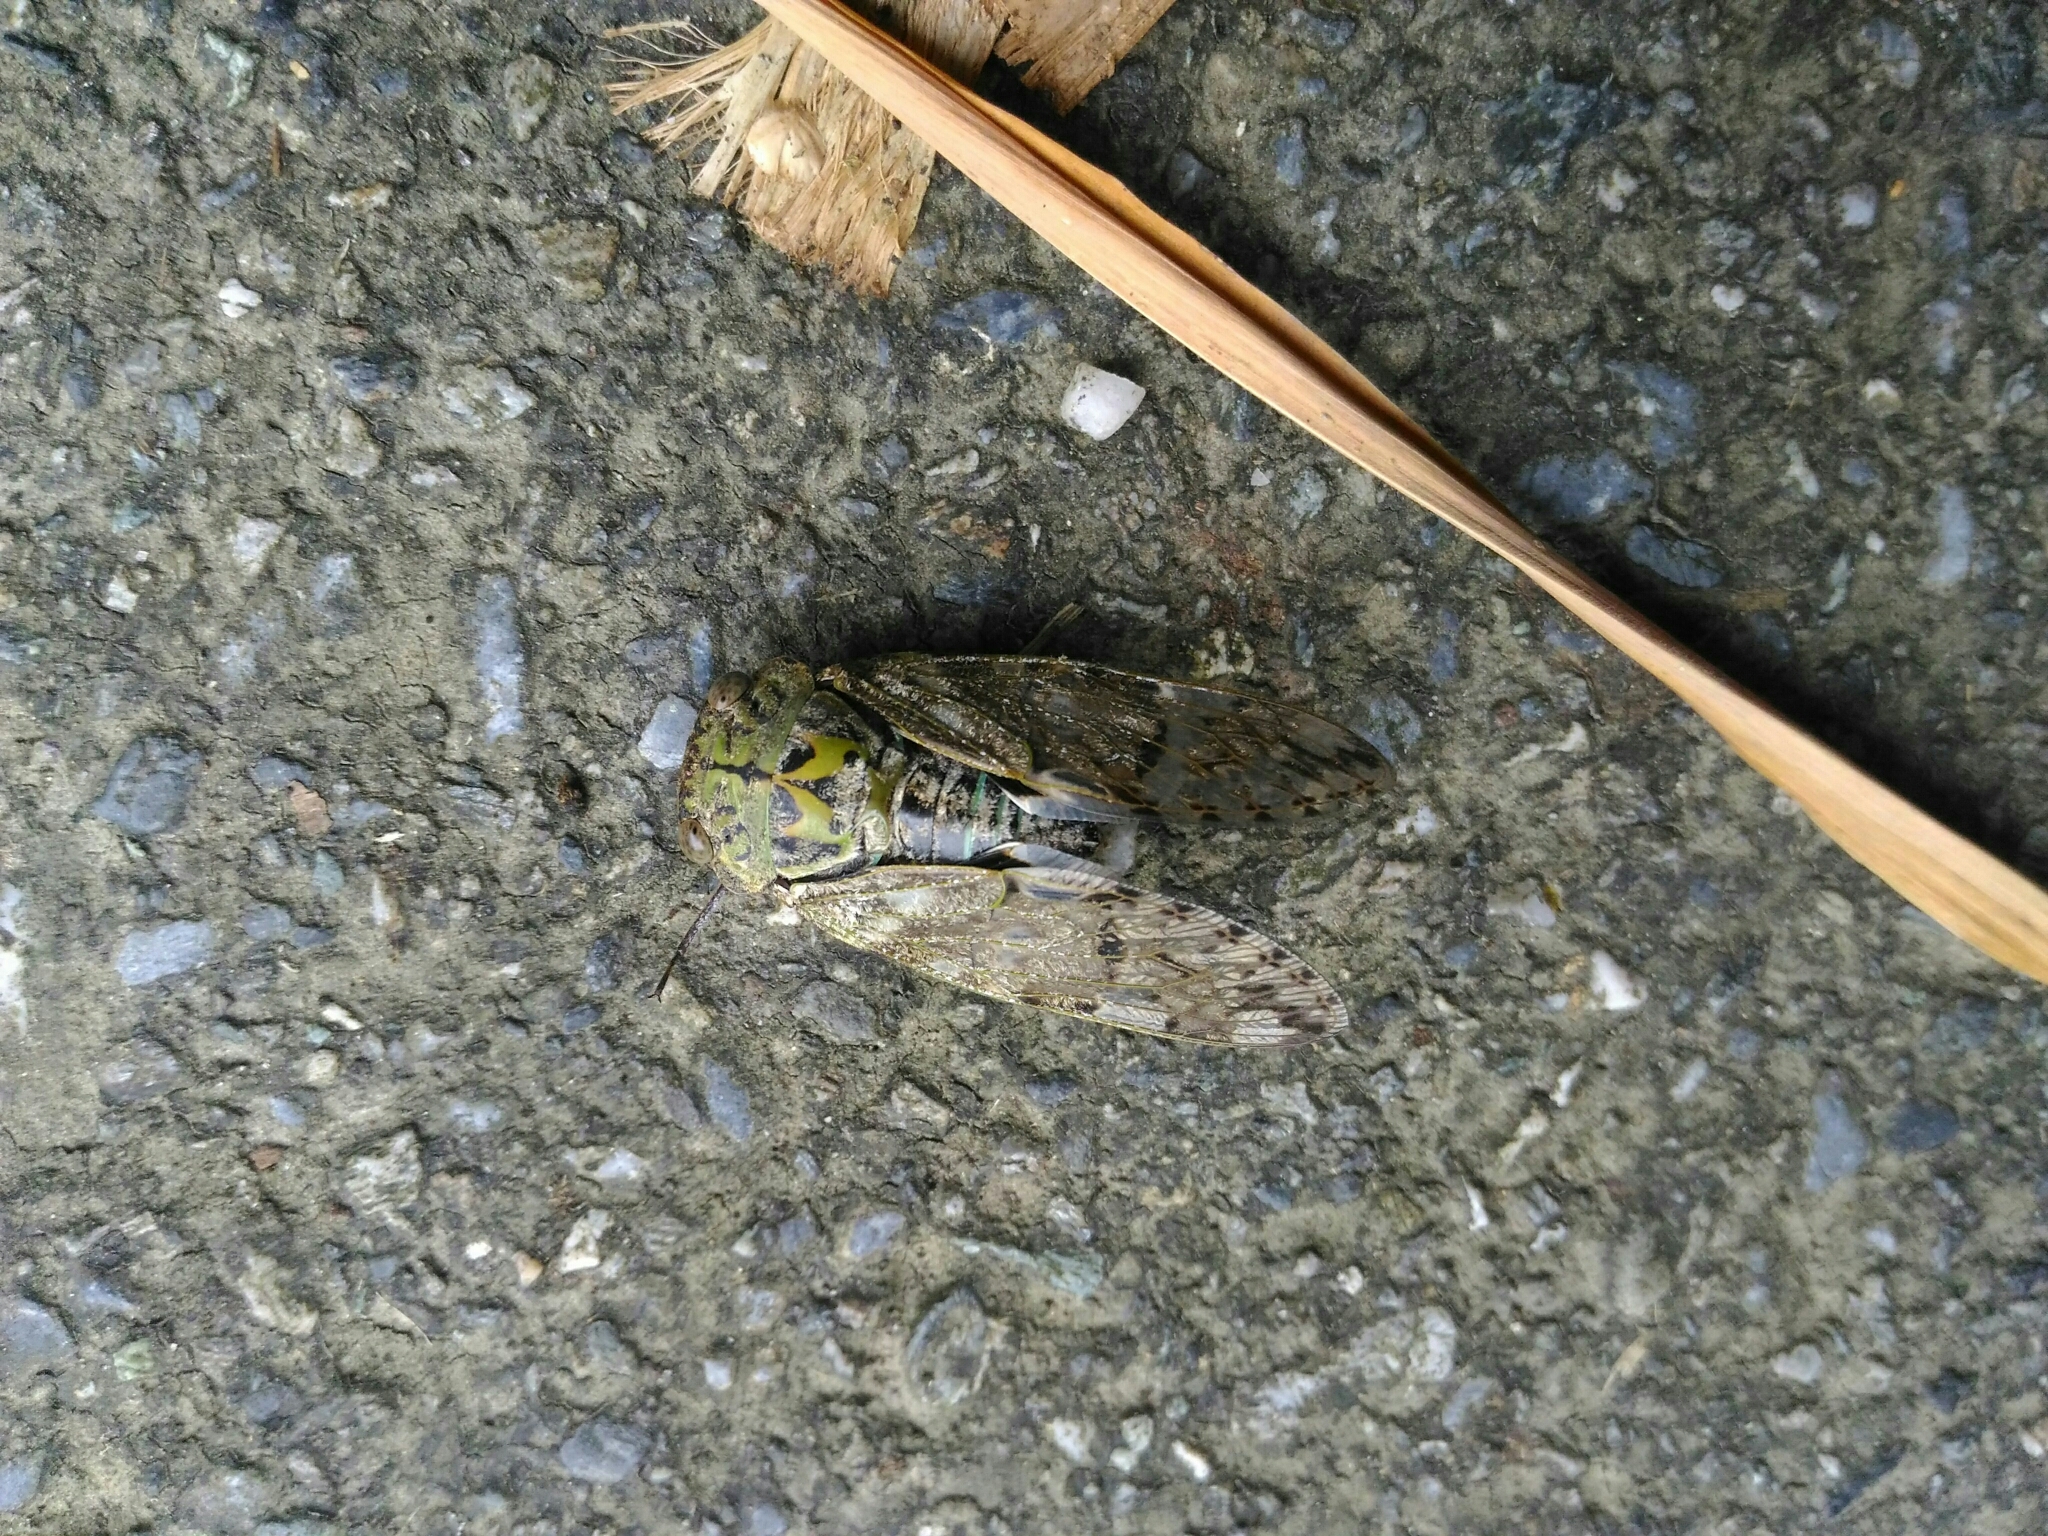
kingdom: Animalia
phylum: Arthropoda
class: Insecta
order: Hemiptera
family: Cicadidae
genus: Platypleura
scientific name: Platypleura takasagona
